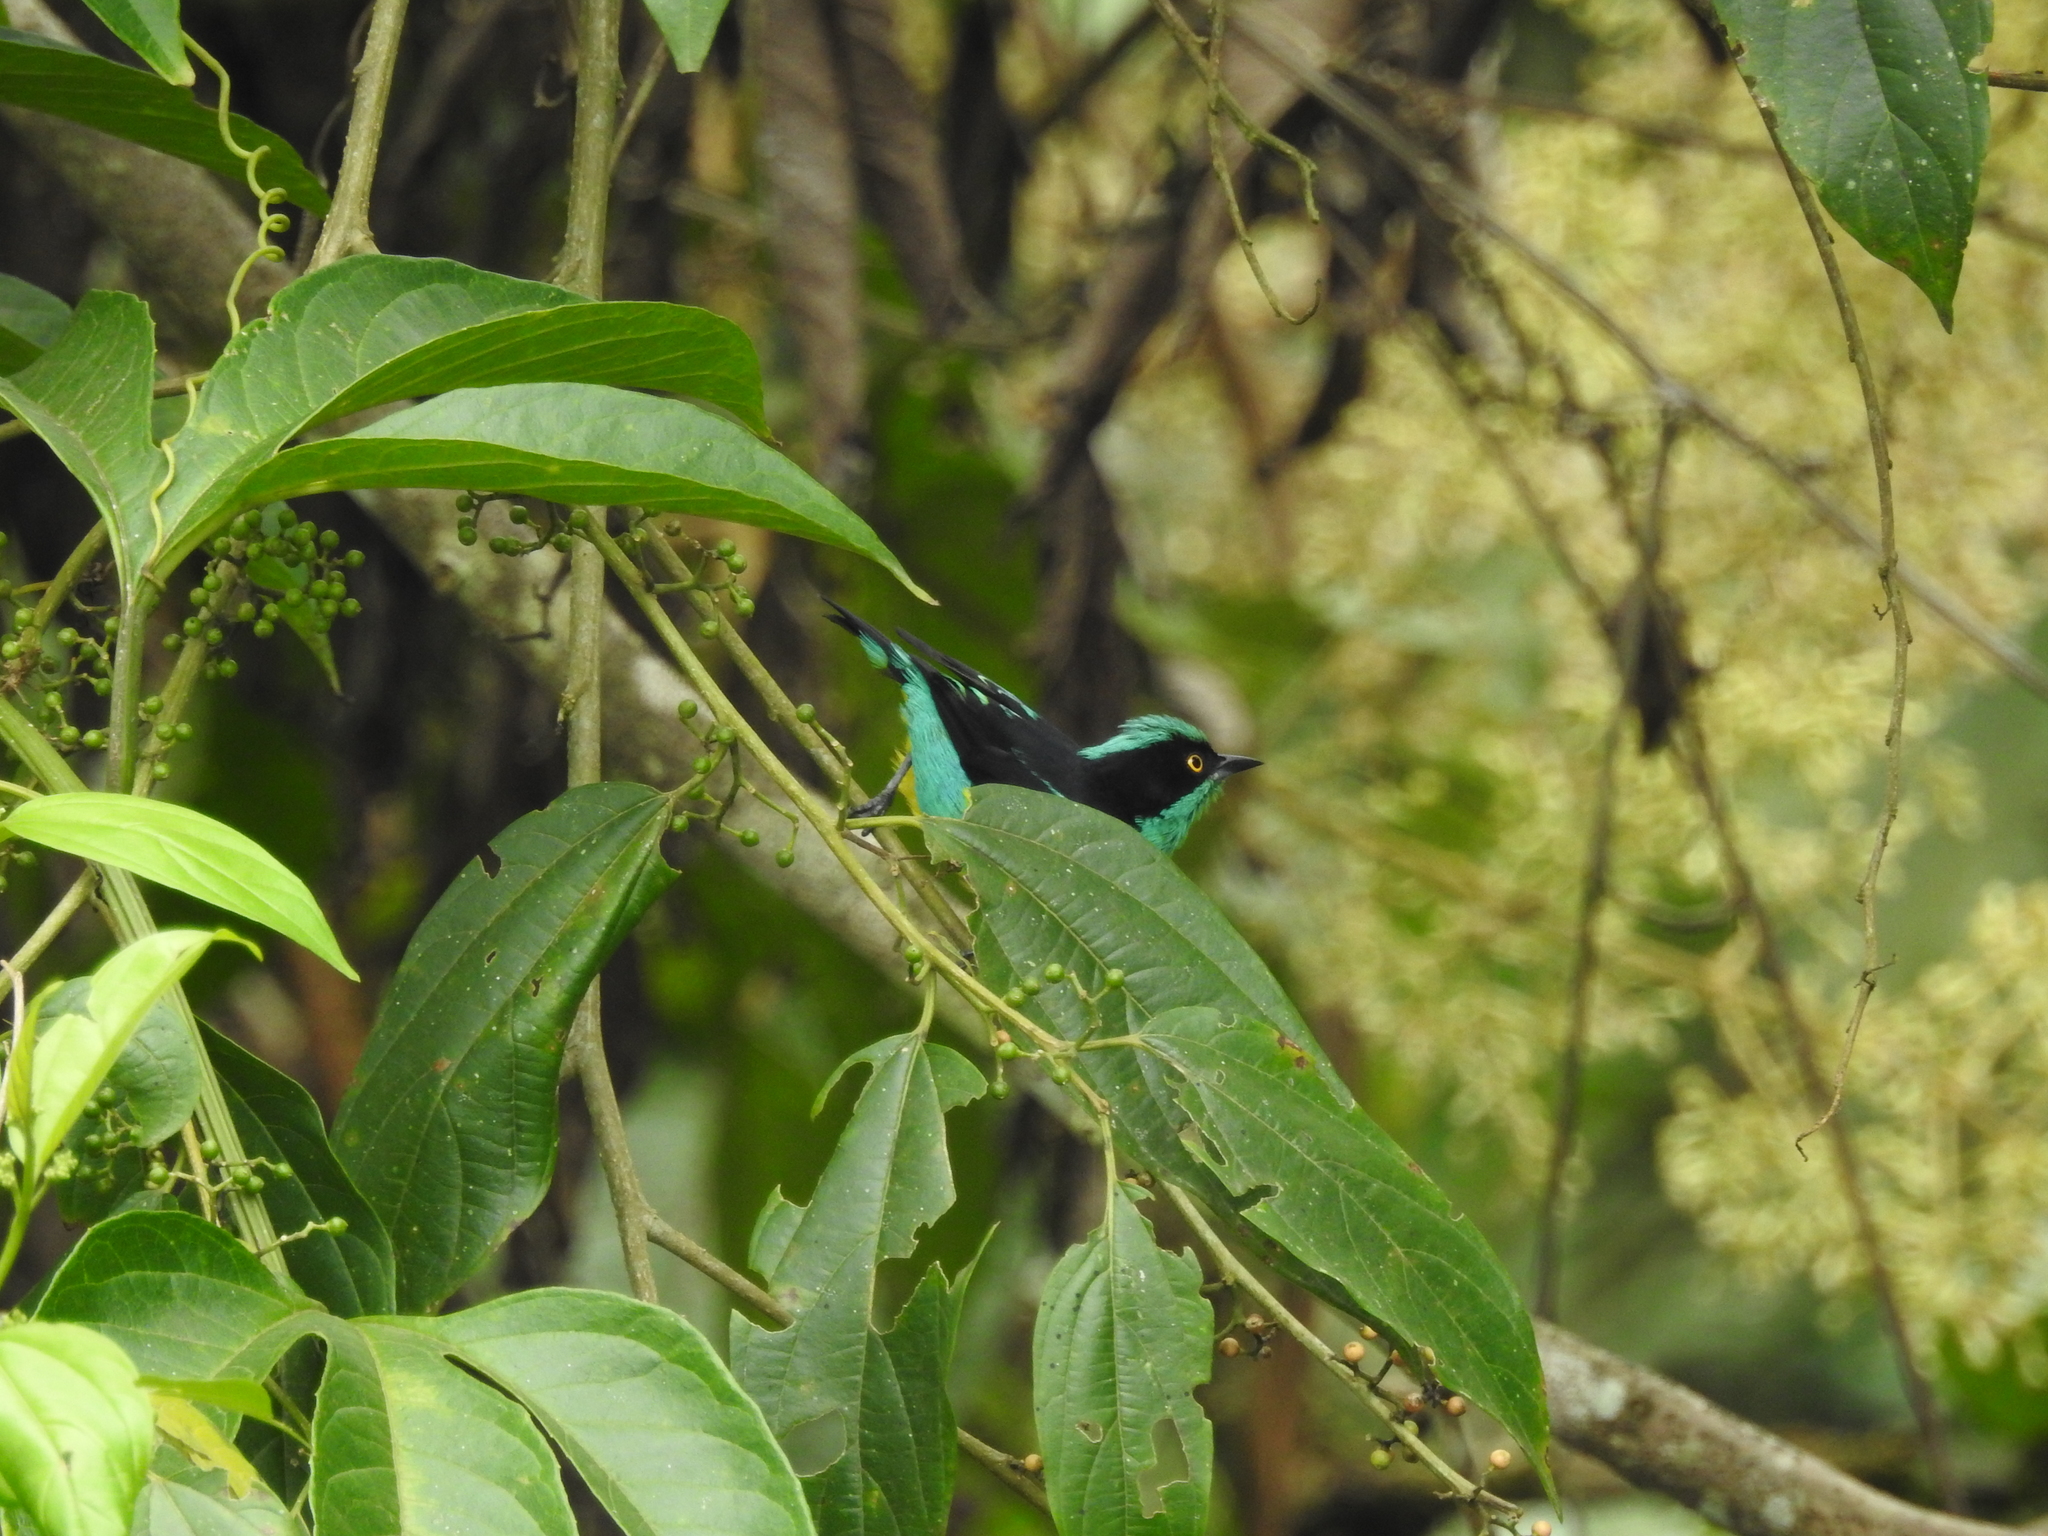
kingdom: Animalia
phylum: Chordata
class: Aves
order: Passeriformes
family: Thraupidae
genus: Dacnis
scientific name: Dacnis egregia
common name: Yellow-tufted dacnis
